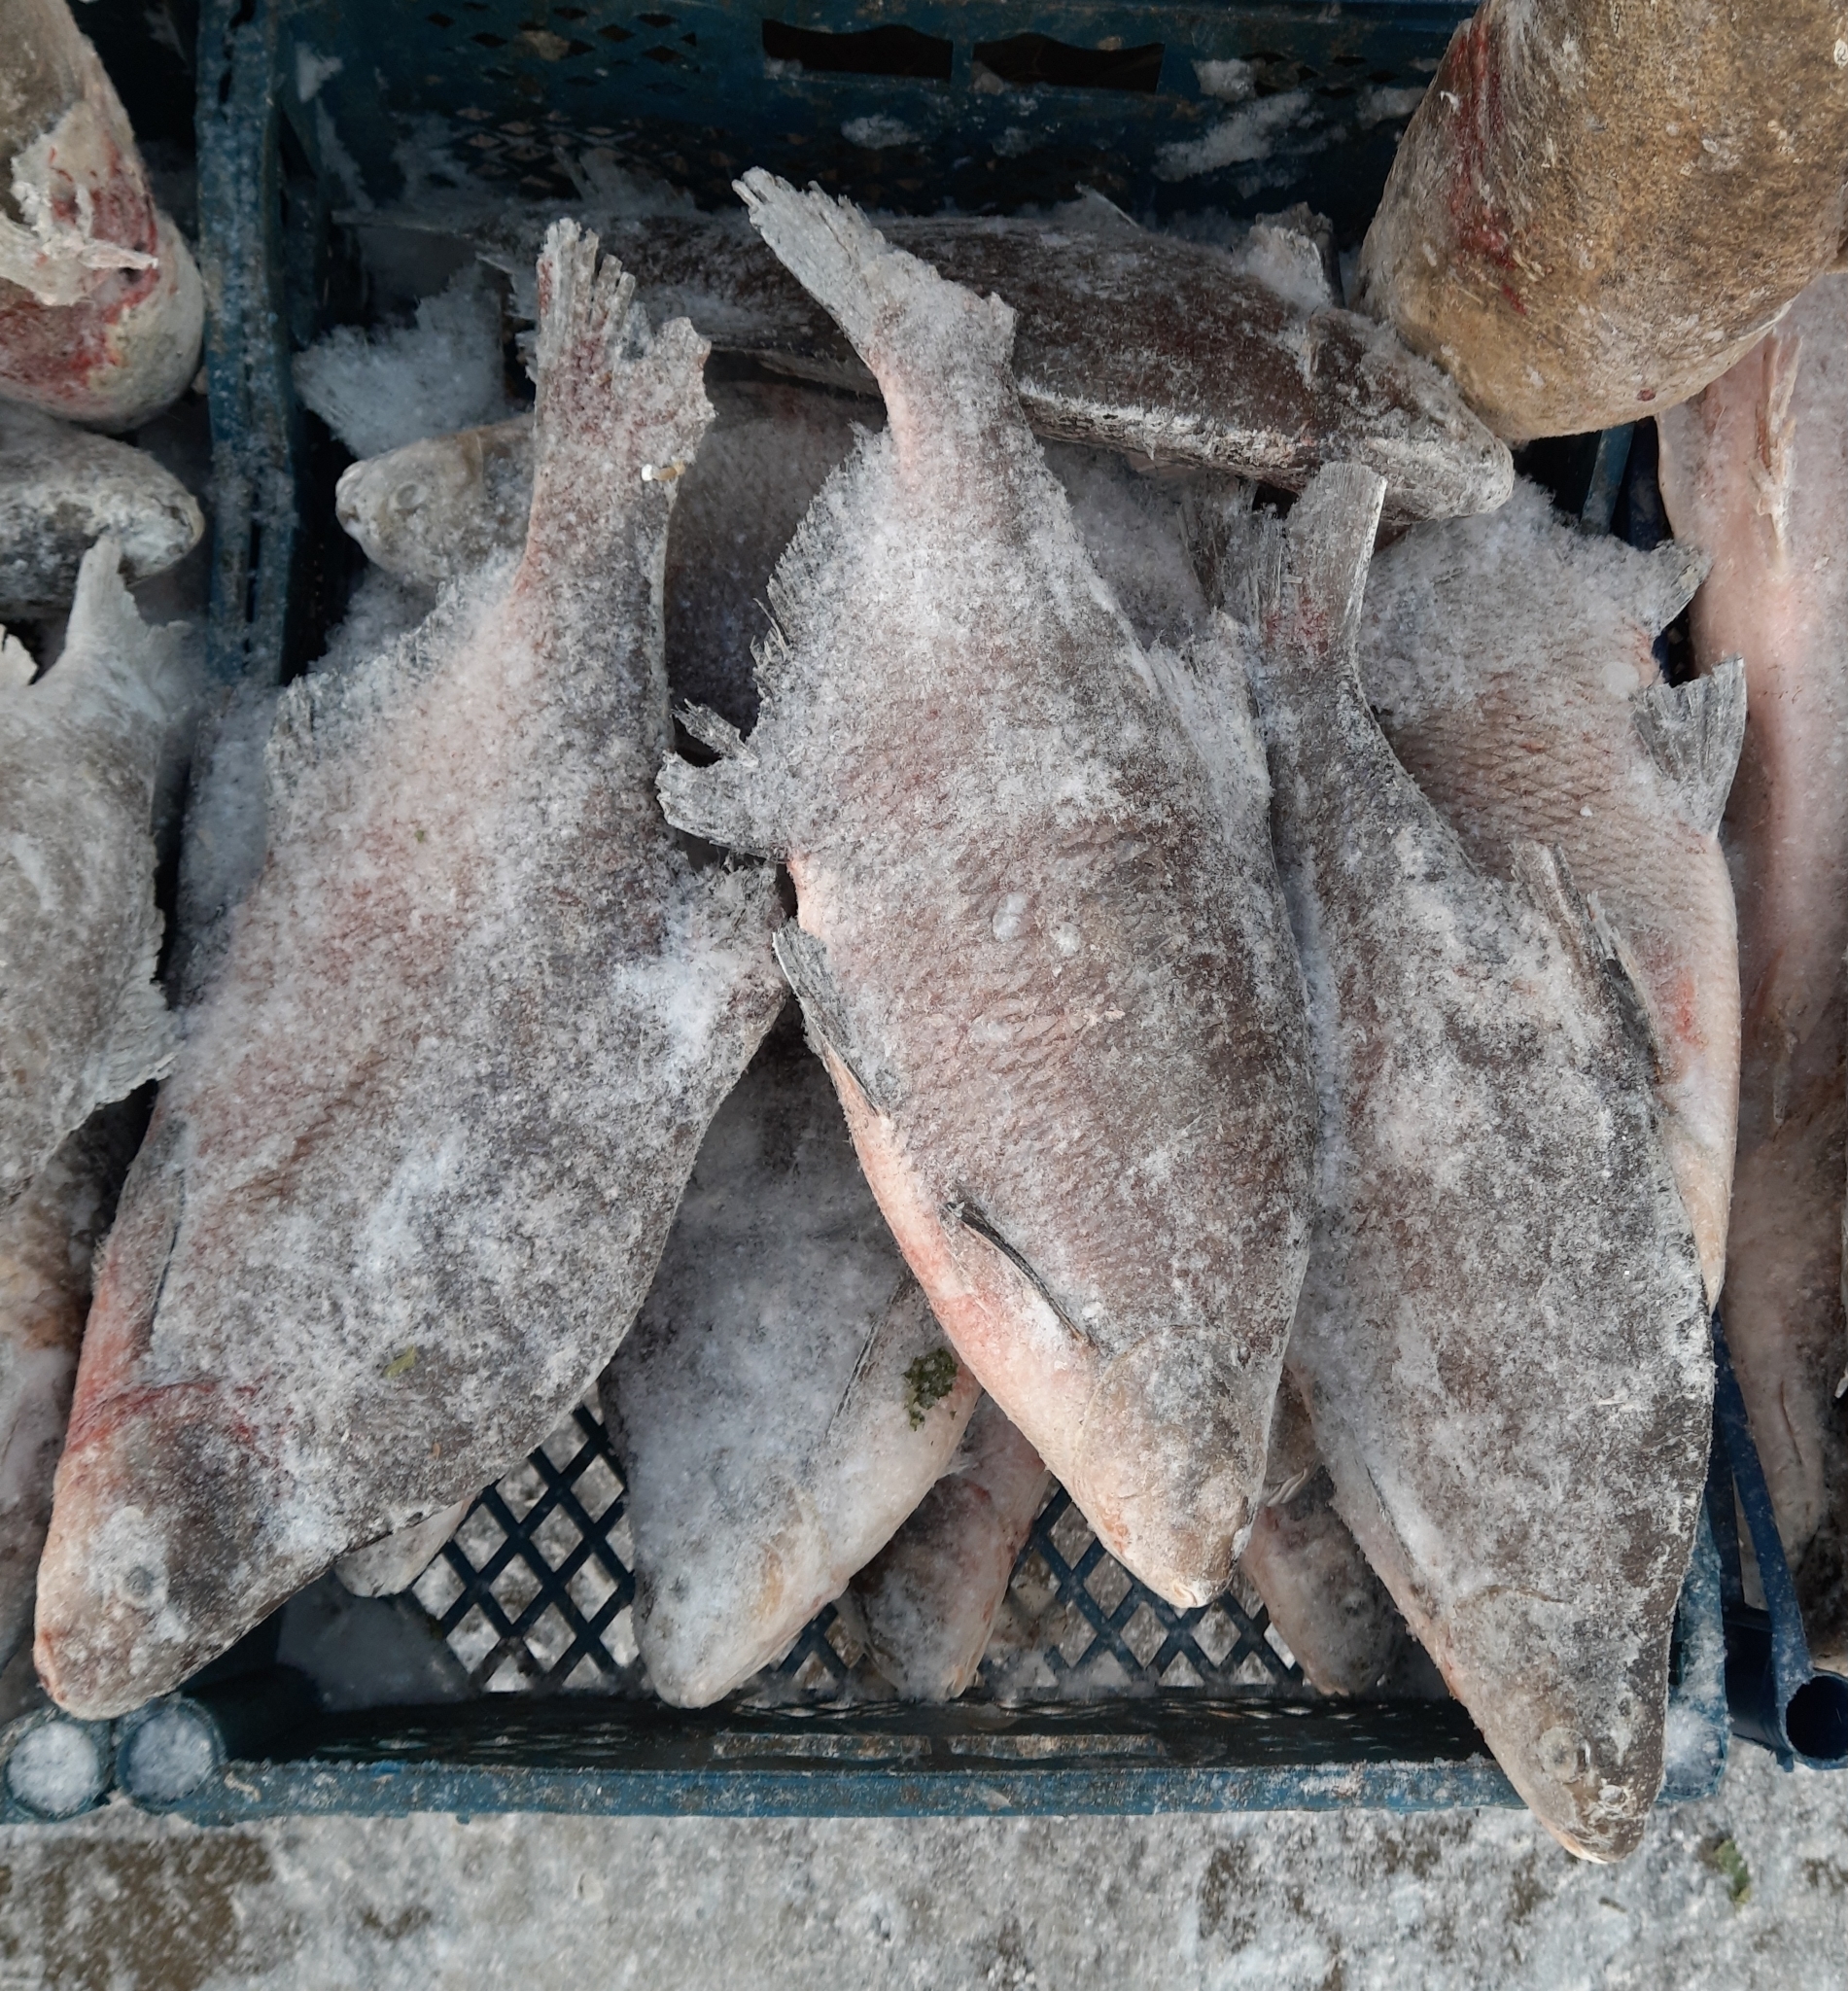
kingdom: Animalia
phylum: Chordata
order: Cypriniformes
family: Cyprinidae
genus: Abramis
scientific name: Abramis brama
